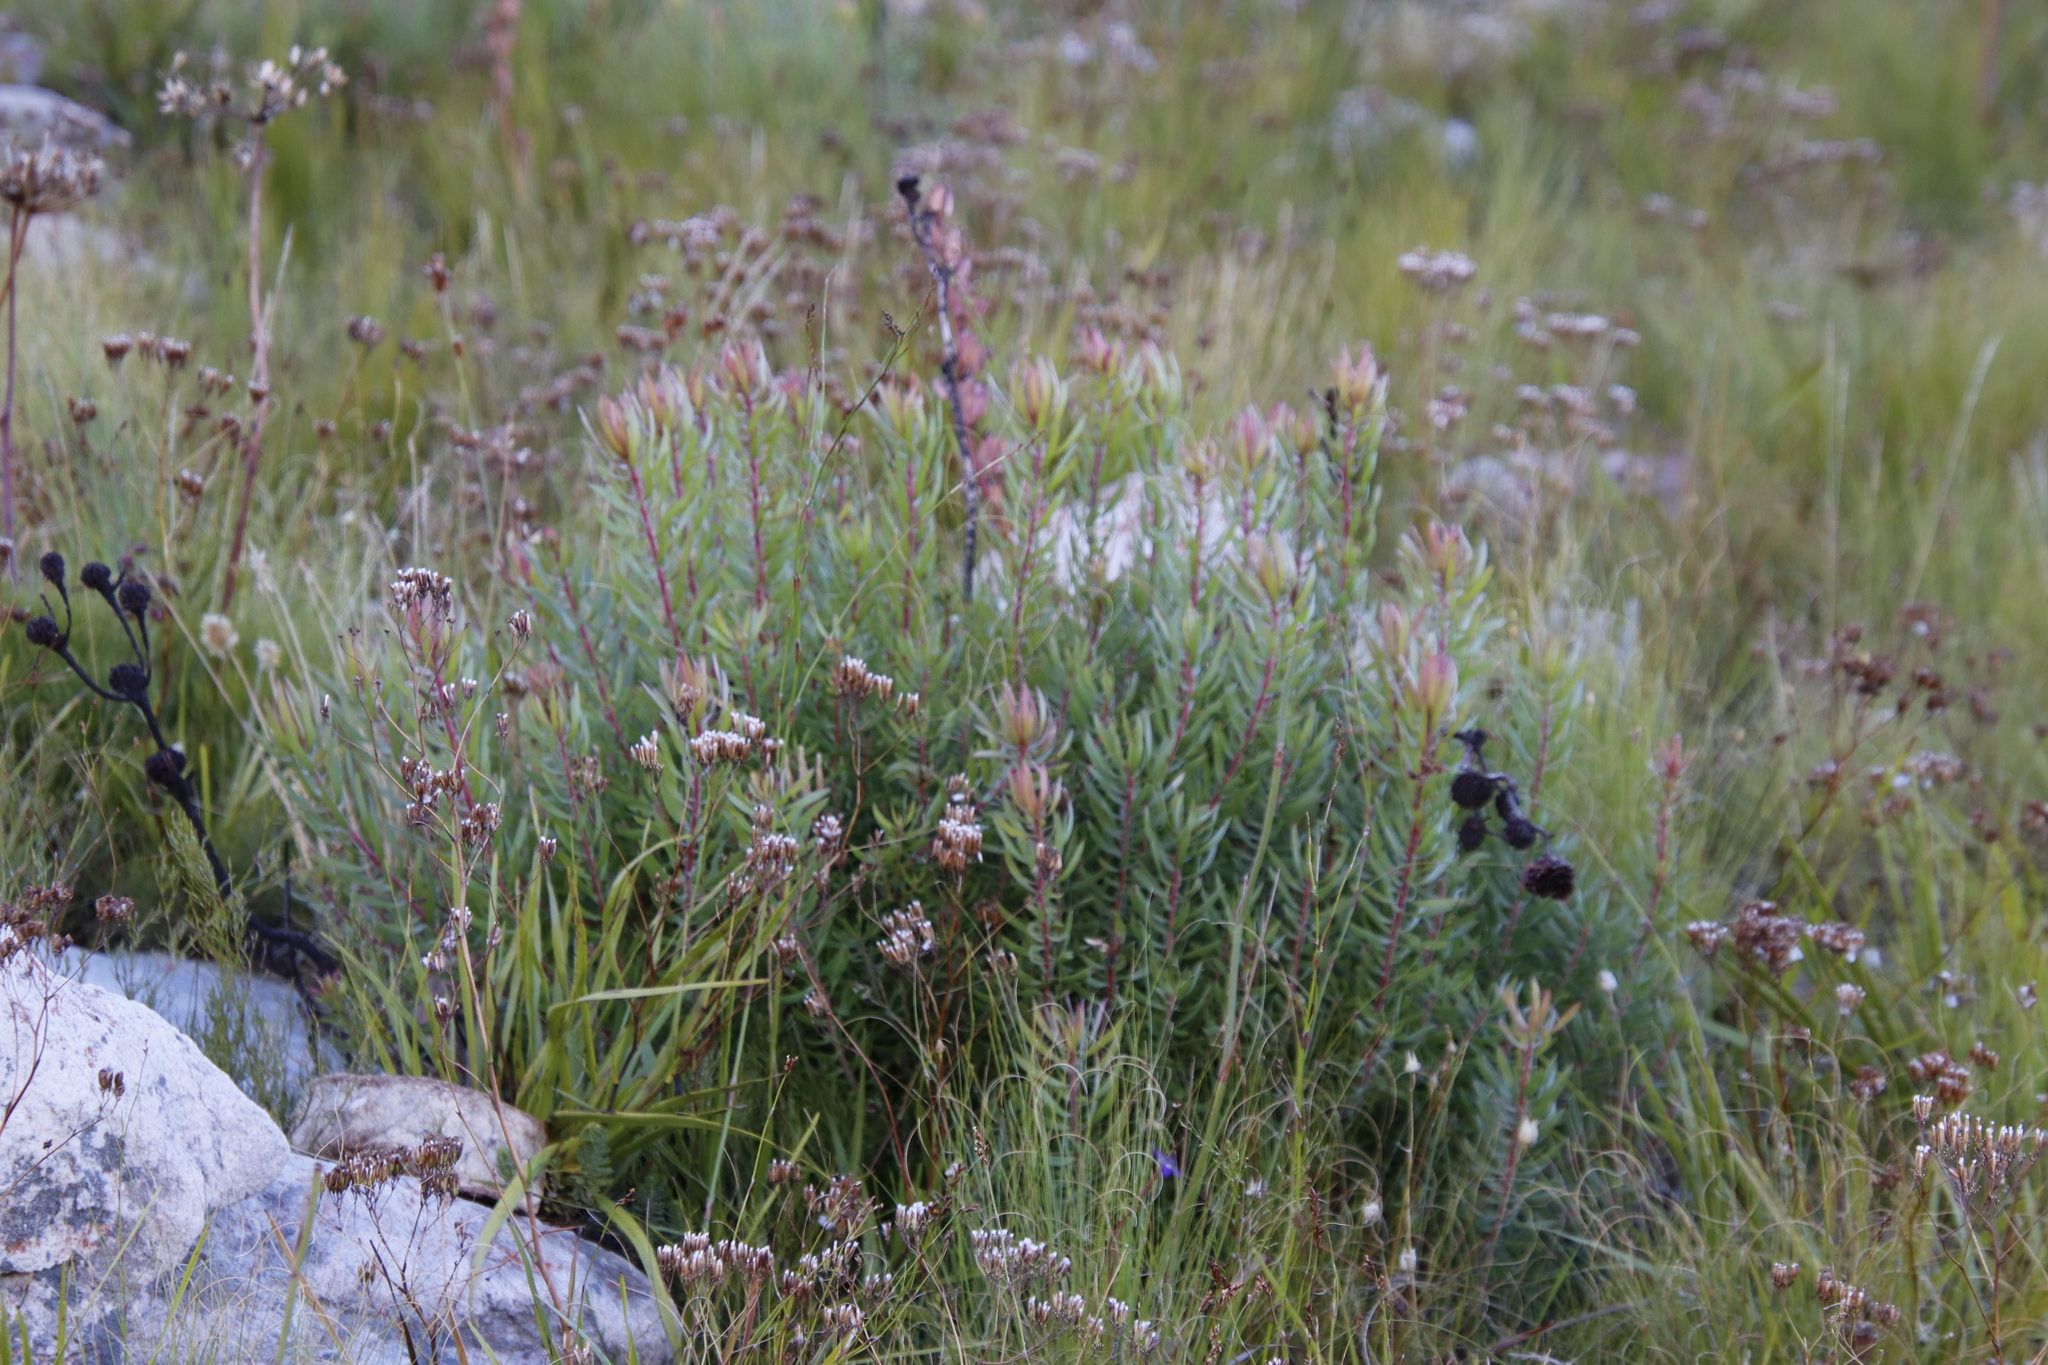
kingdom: Plantae
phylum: Tracheophyta
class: Magnoliopsida
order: Proteales
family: Proteaceae
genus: Leucadendron
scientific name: Leucadendron spissifolium
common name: Spear-leaf conebush
